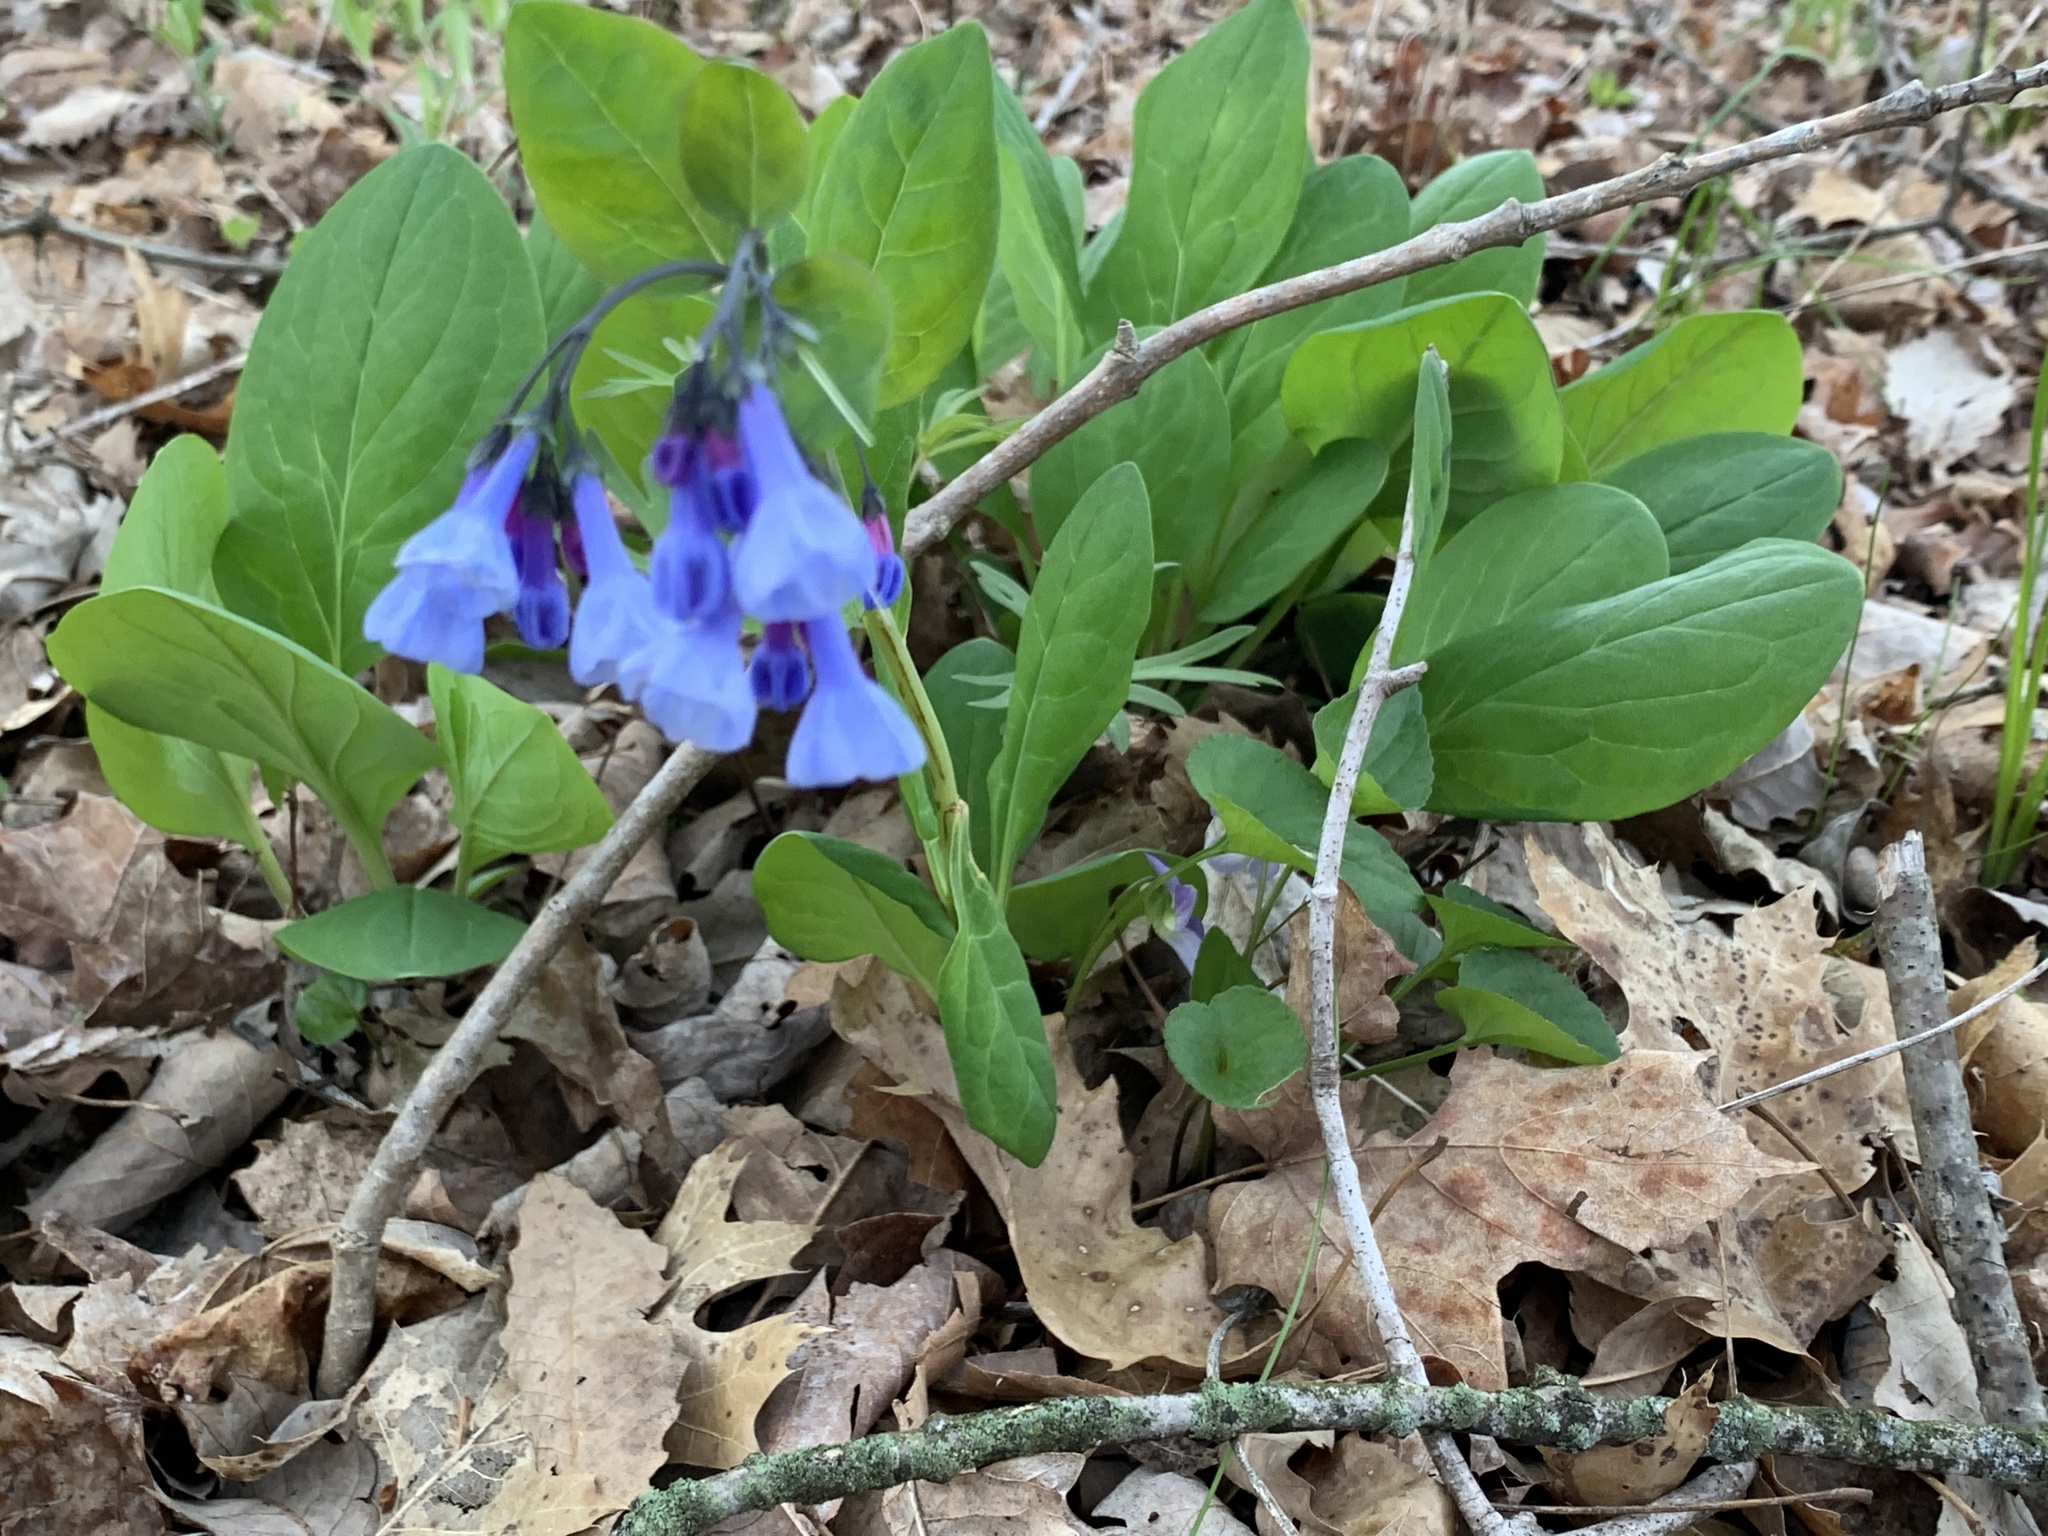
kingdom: Plantae
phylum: Tracheophyta
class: Magnoliopsida
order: Boraginales
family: Boraginaceae
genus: Mertensia
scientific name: Mertensia virginica
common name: Virginia bluebells
